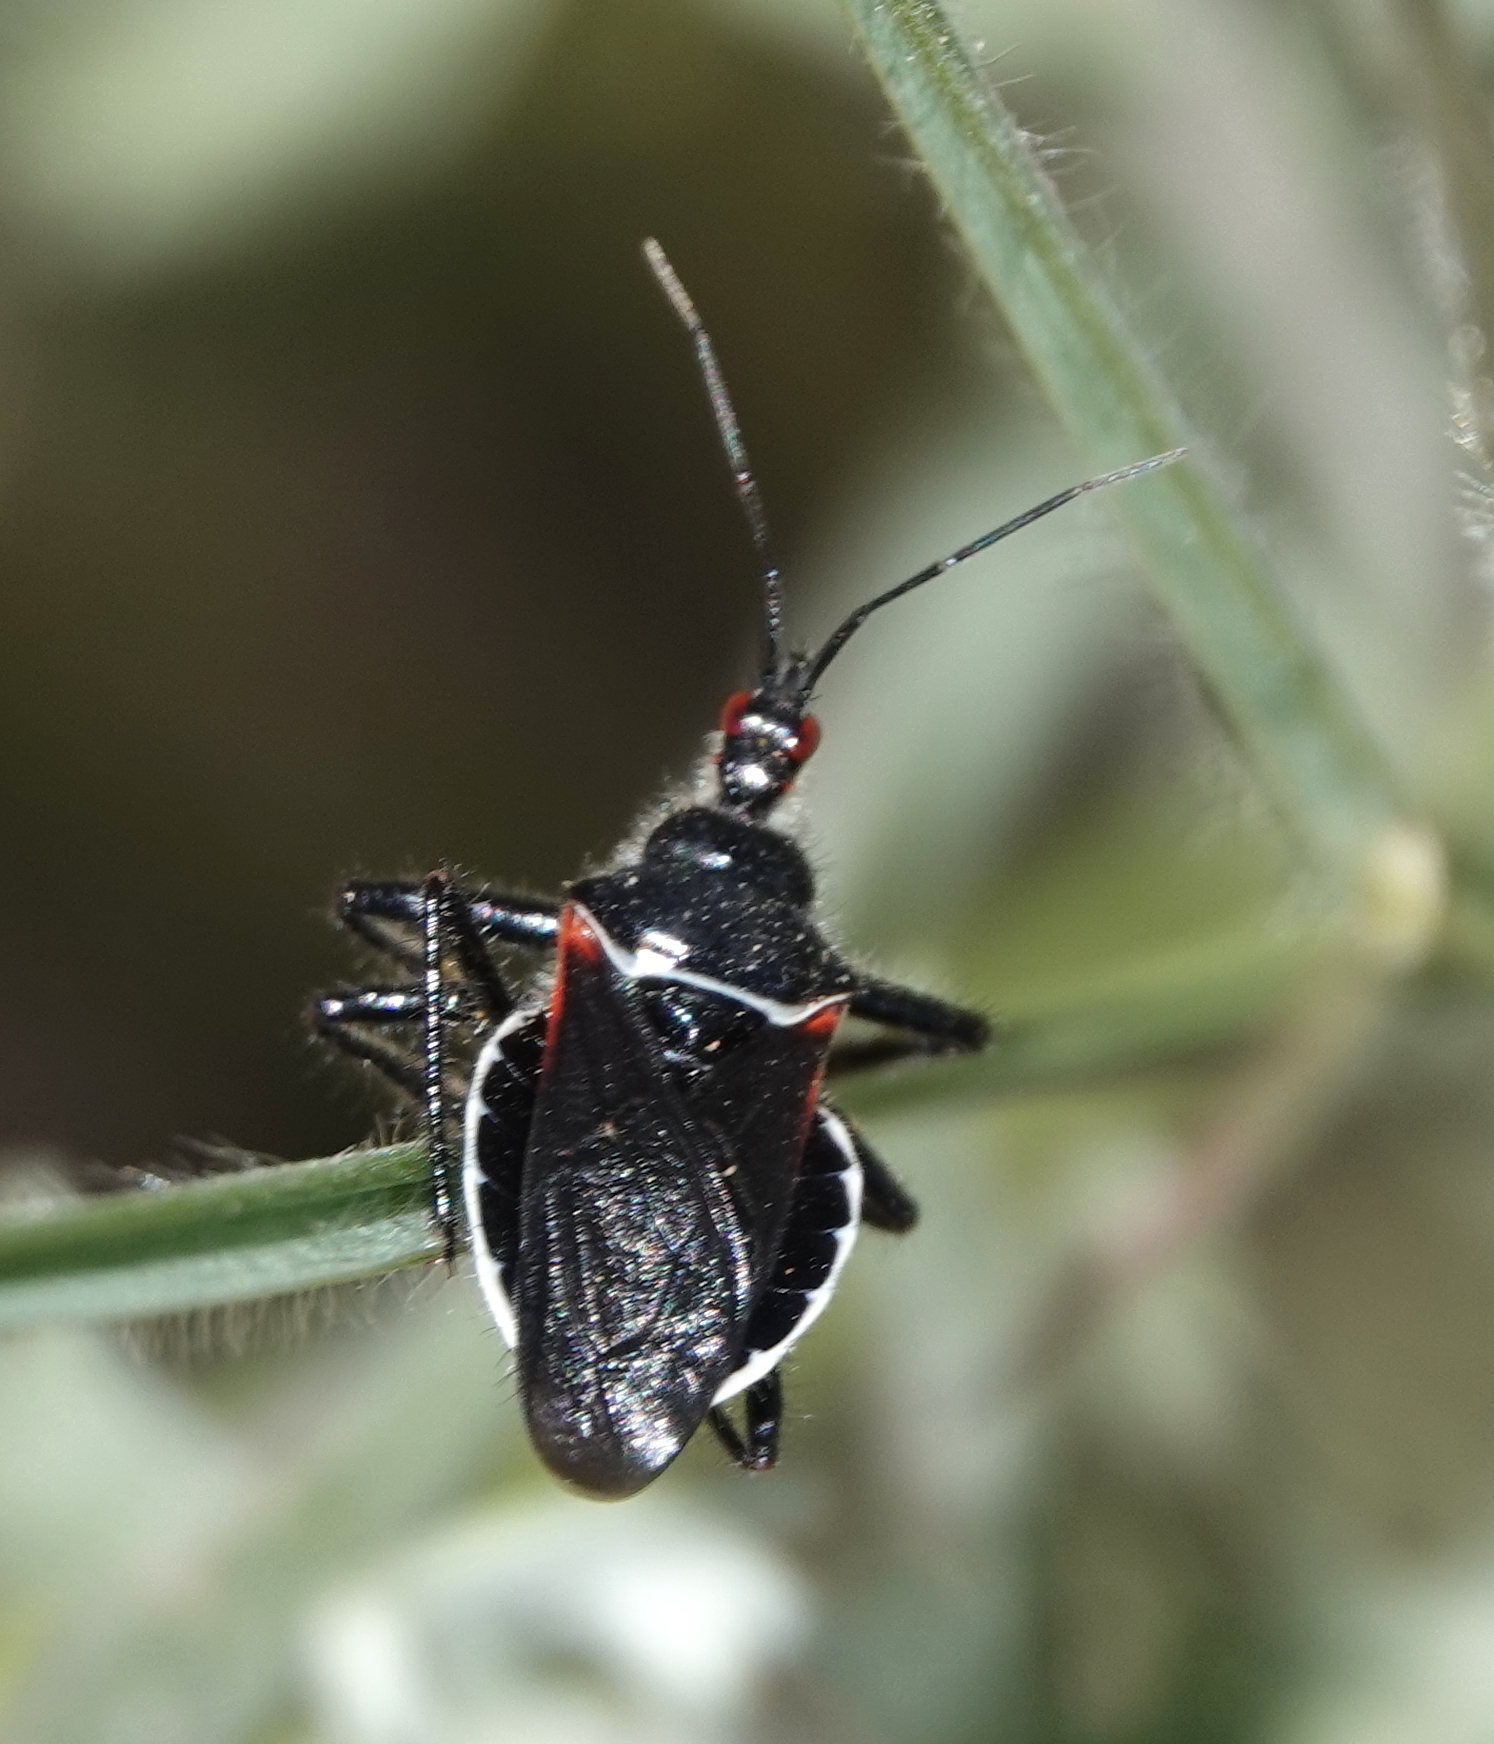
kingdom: Animalia
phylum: Arthropoda
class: Insecta
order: Hemiptera
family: Reduviidae
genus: Apiomerus
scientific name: Apiomerus californicus
